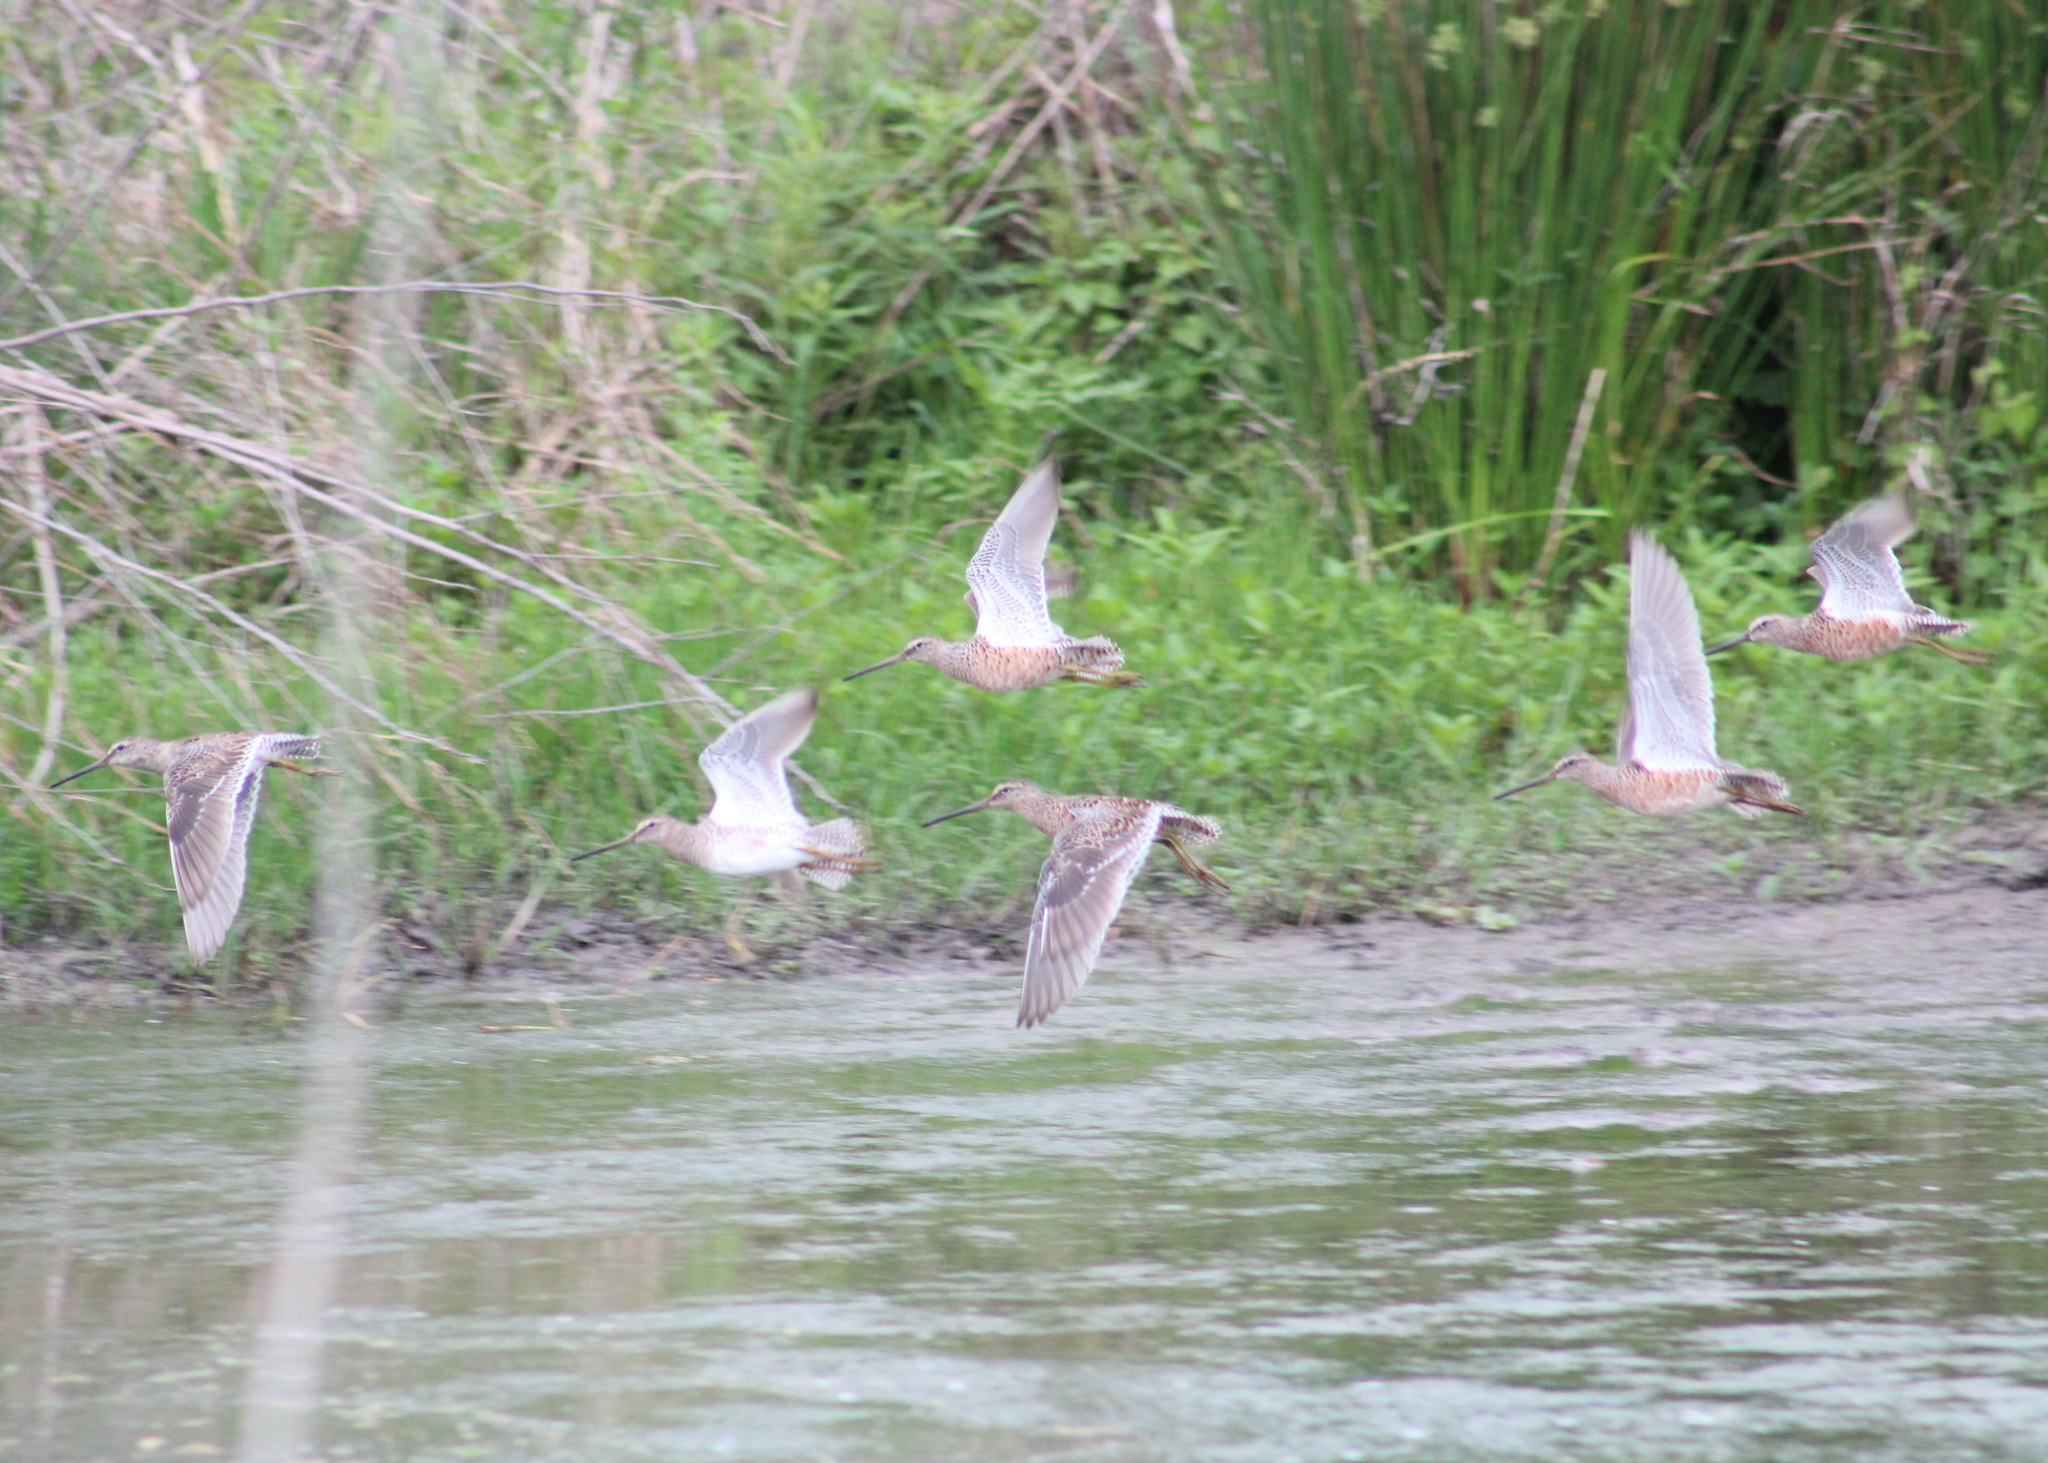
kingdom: Animalia
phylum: Chordata
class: Aves
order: Charadriiformes
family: Scolopacidae
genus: Limnodromus
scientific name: Limnodromus scolopaceus
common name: Long-billed dowitcher
